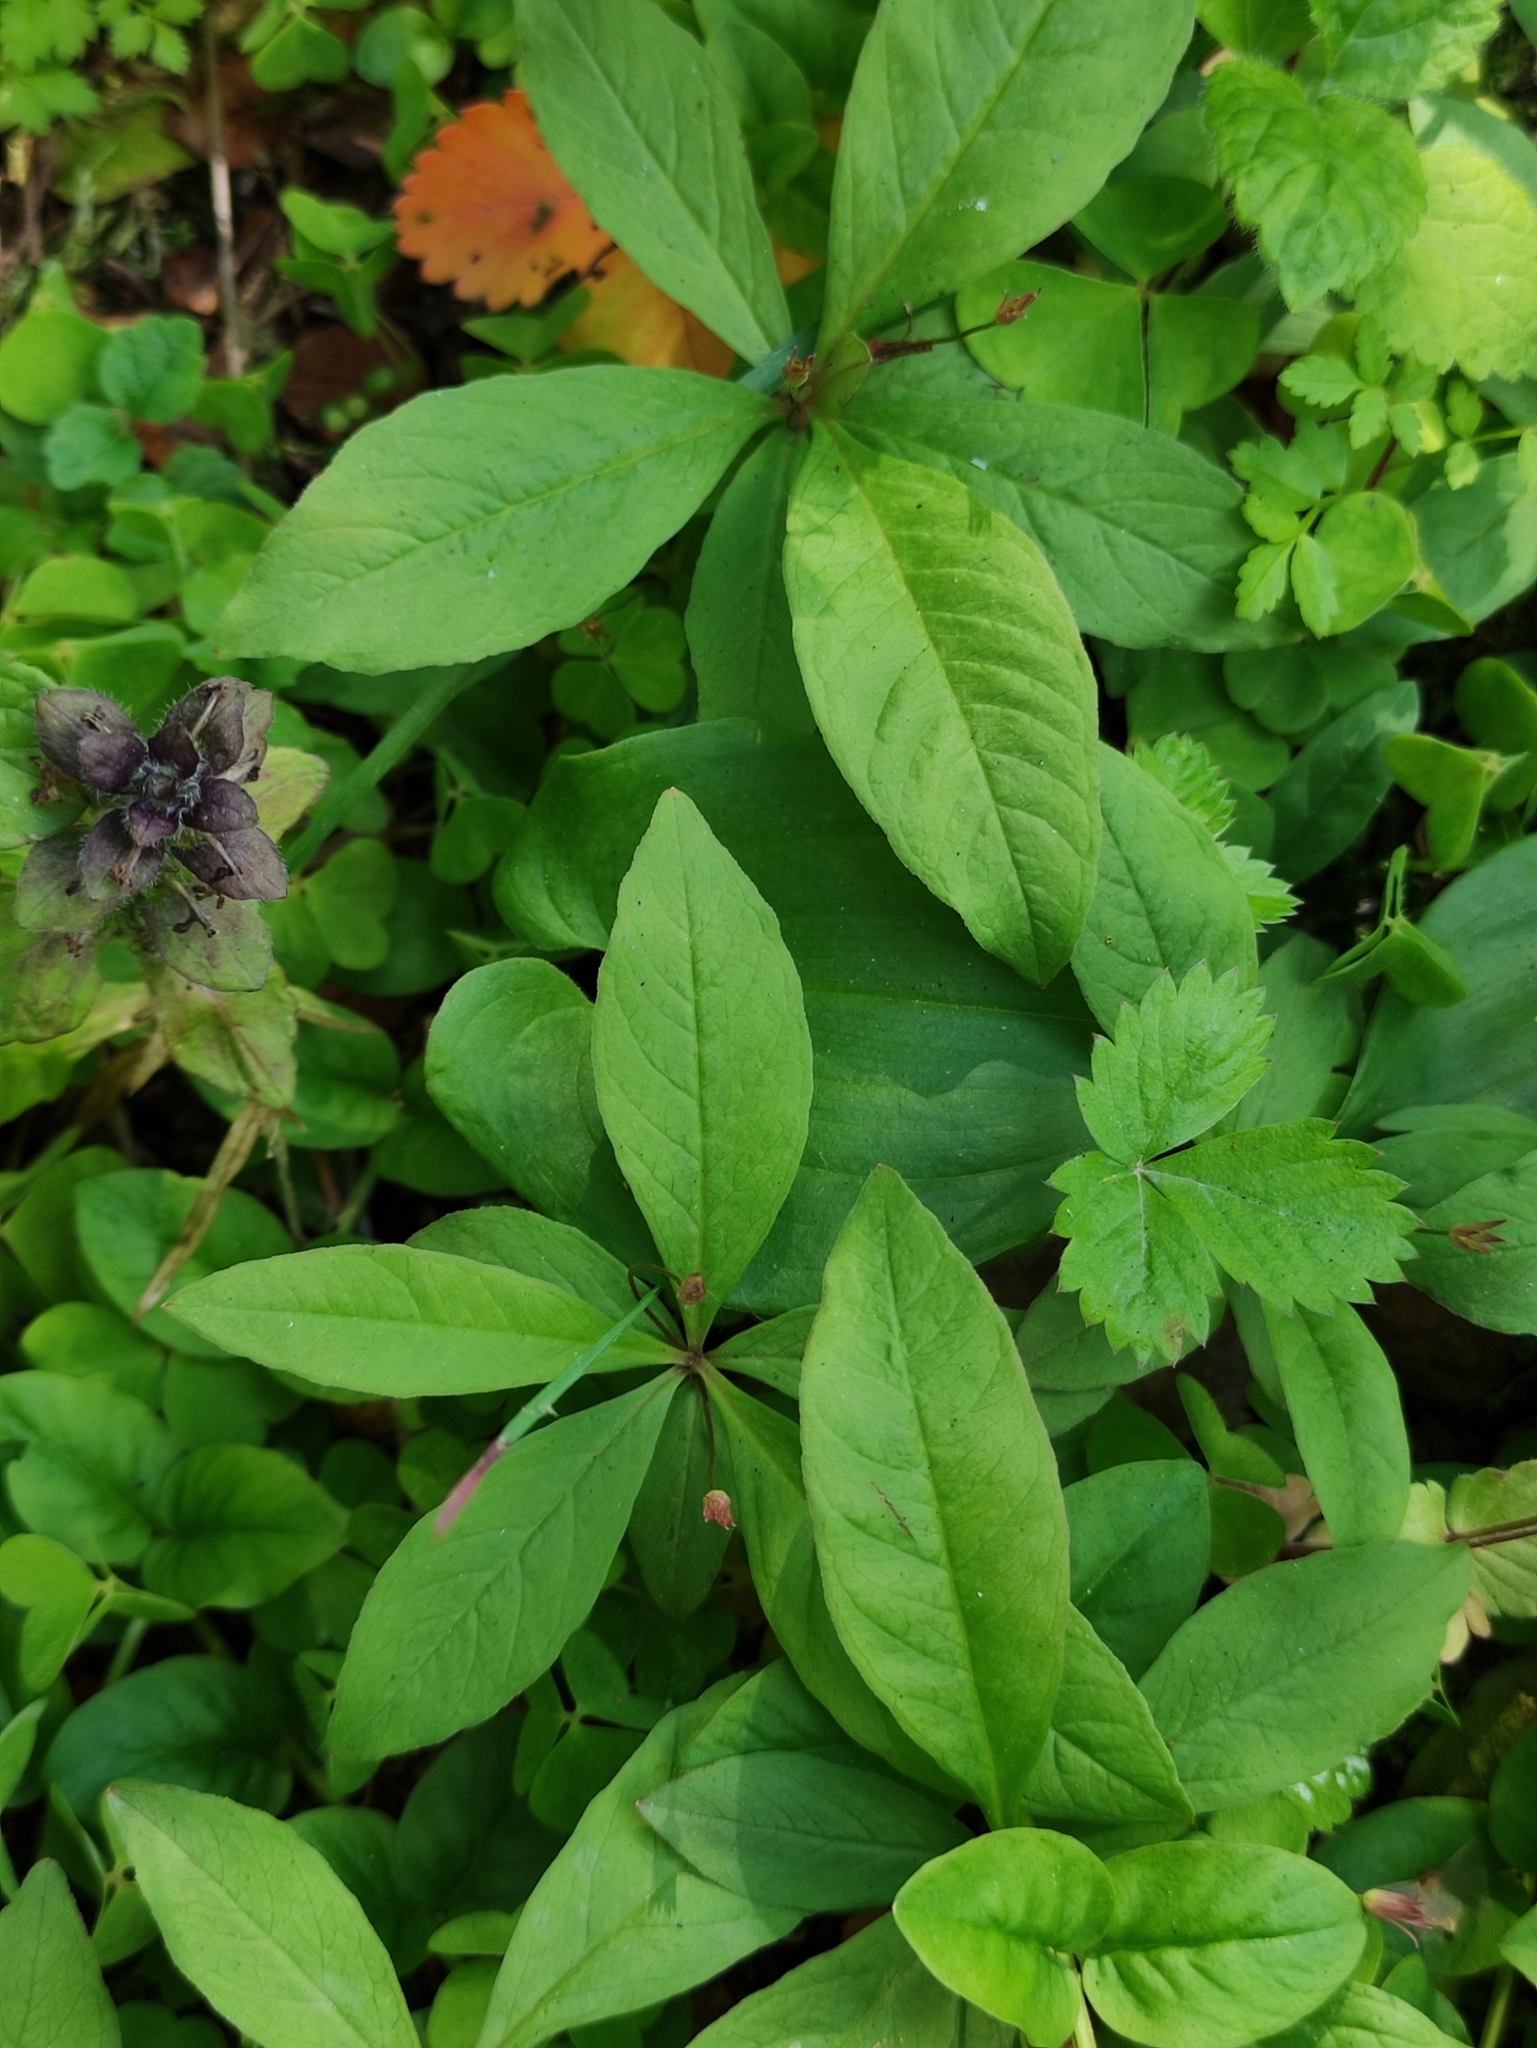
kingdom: Plantae
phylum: Tracheophyta
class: Magnoliopsida
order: Ericales
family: Primulaceae
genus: Lysimachia
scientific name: Lysimachia europaea
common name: Arctic starflower
